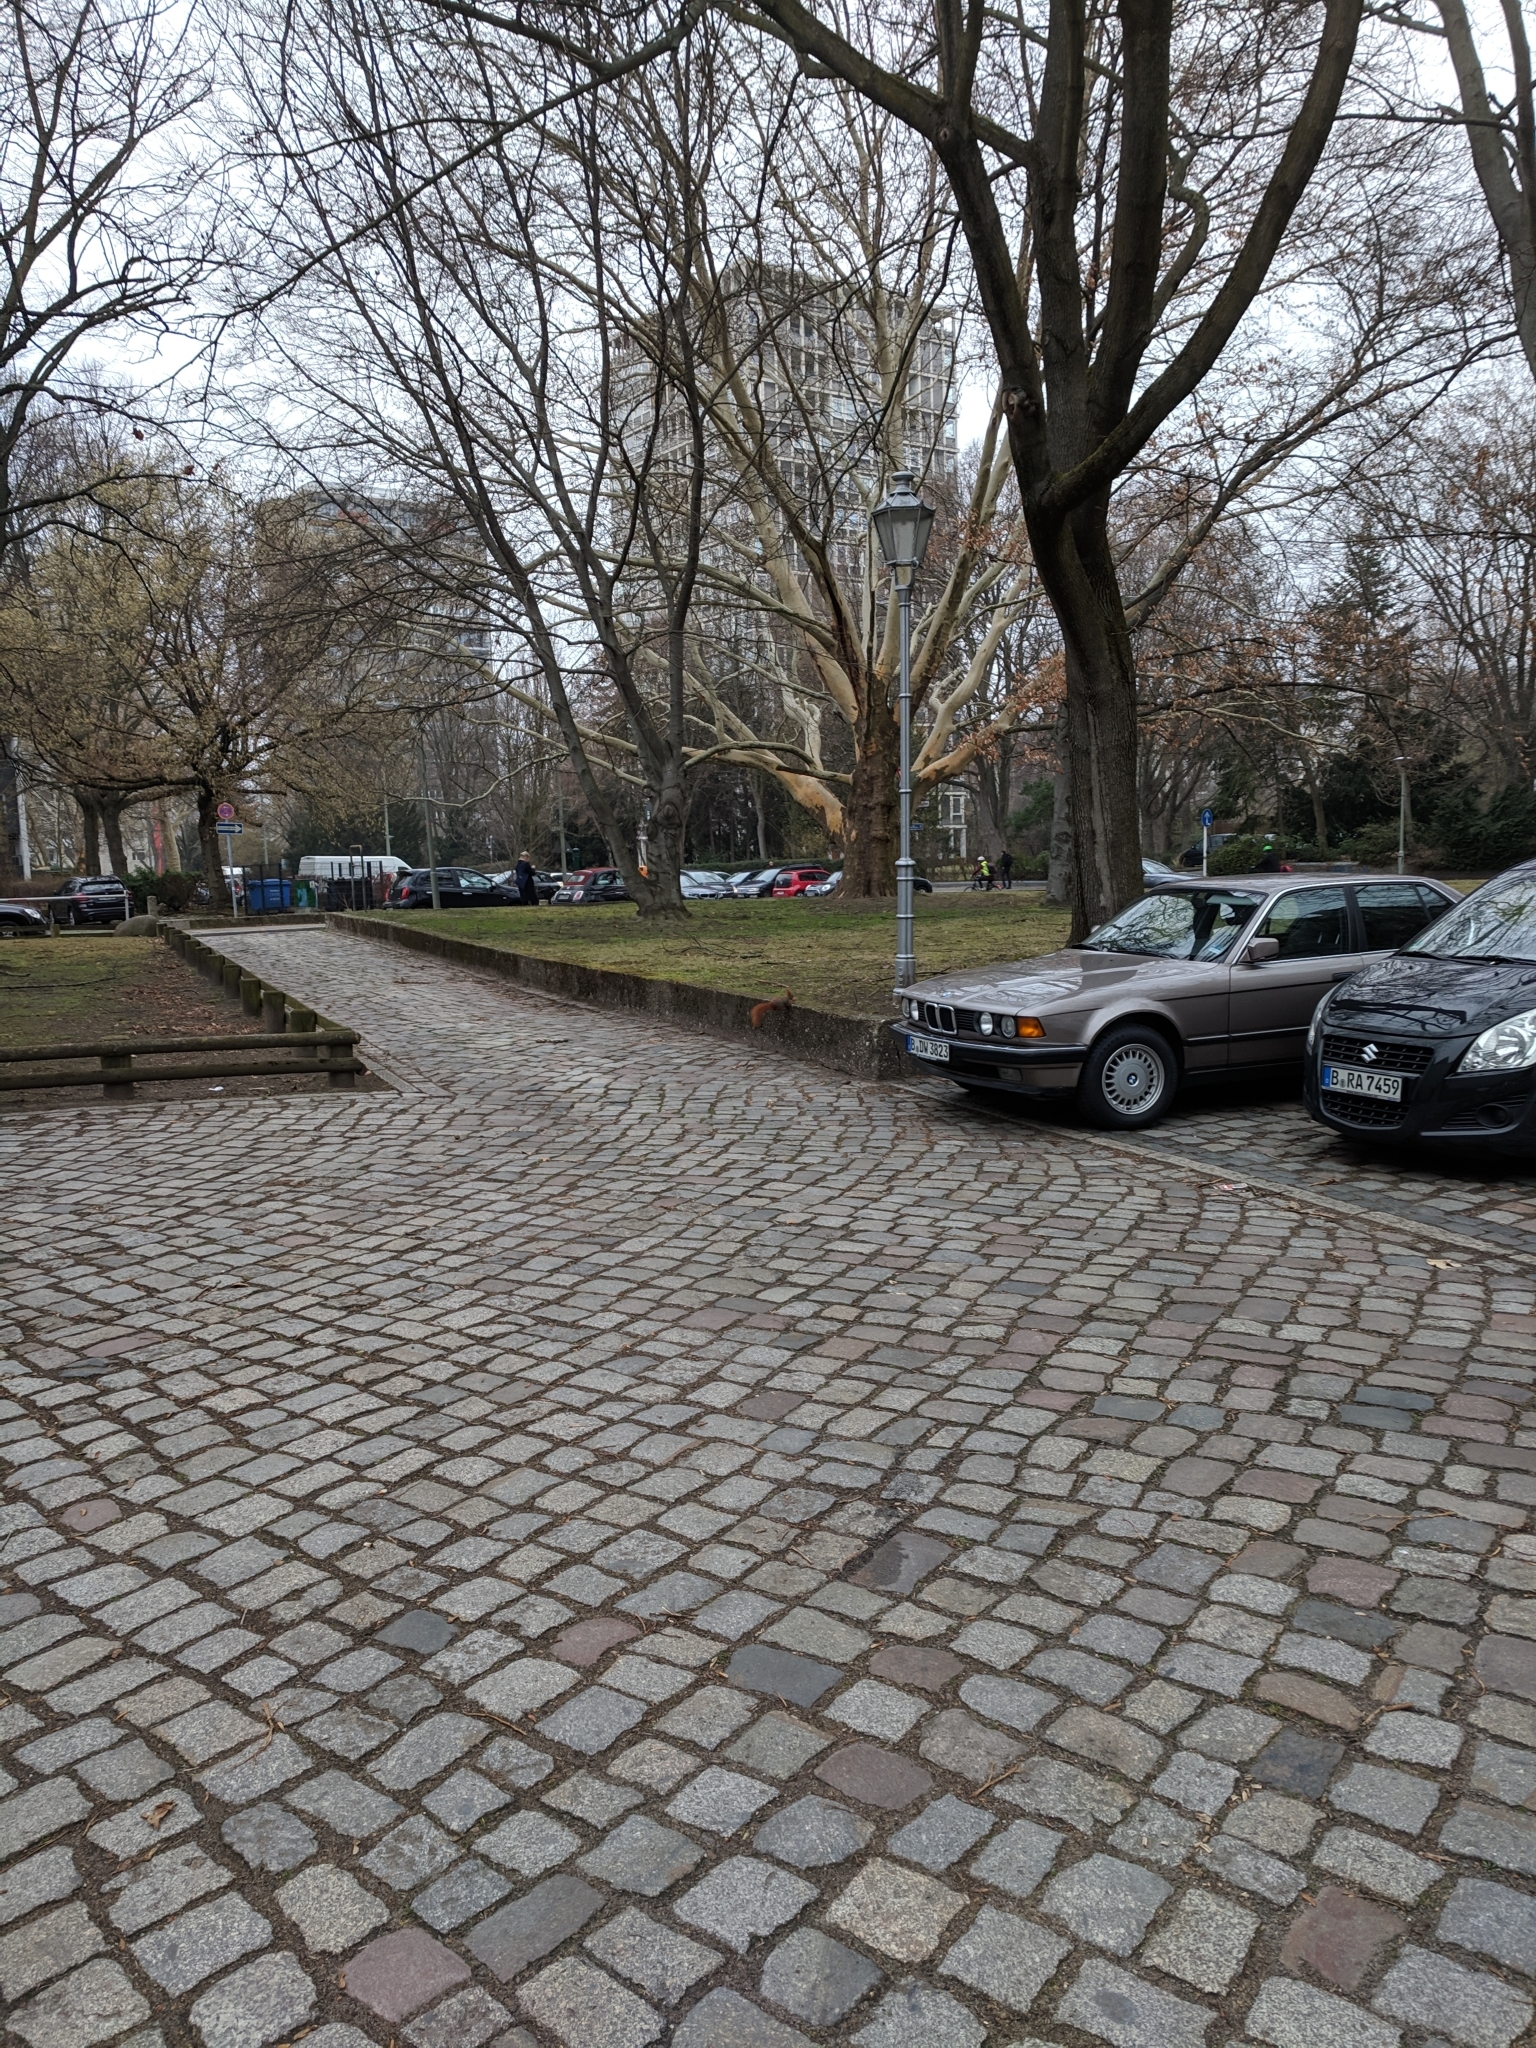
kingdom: Animalia
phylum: Chordata
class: Mammalia
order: Rodentia
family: Sciuridae
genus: Sciurus
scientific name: Sciurus vulgaris
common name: Eurasian red squirrel
